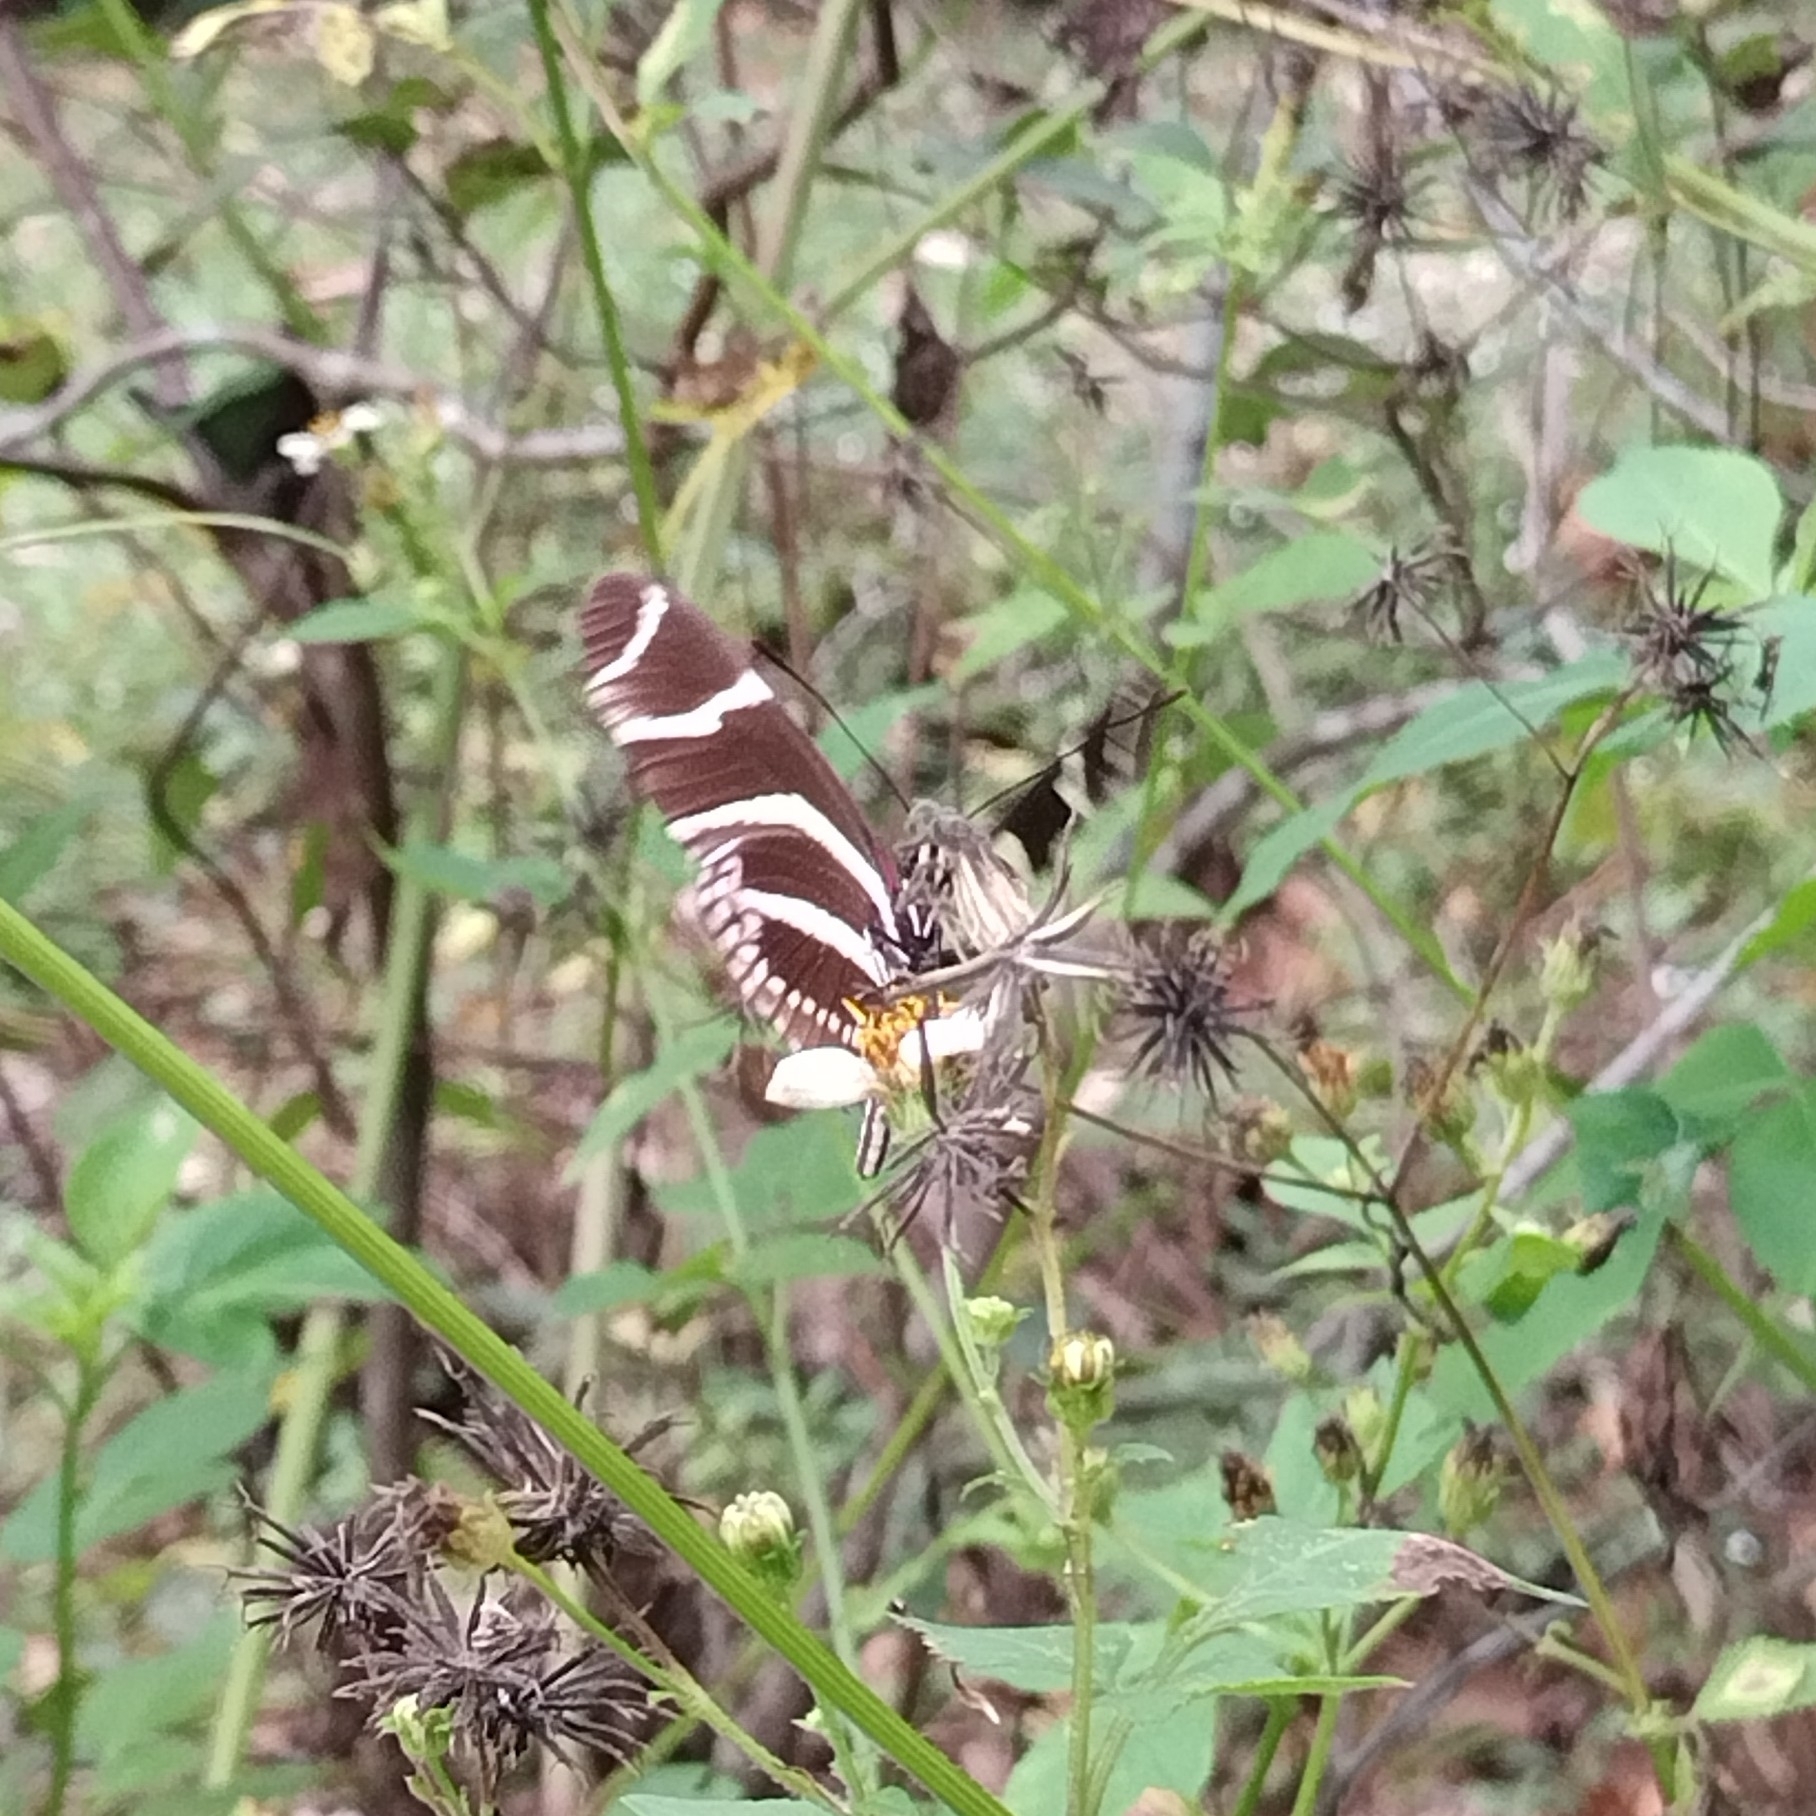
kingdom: Animalia
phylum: Arthropoda
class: Insecta
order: Lepidoptera
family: Nymphalidae
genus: Heliconius
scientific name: Heliconius charithonia
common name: Zebra long wing
